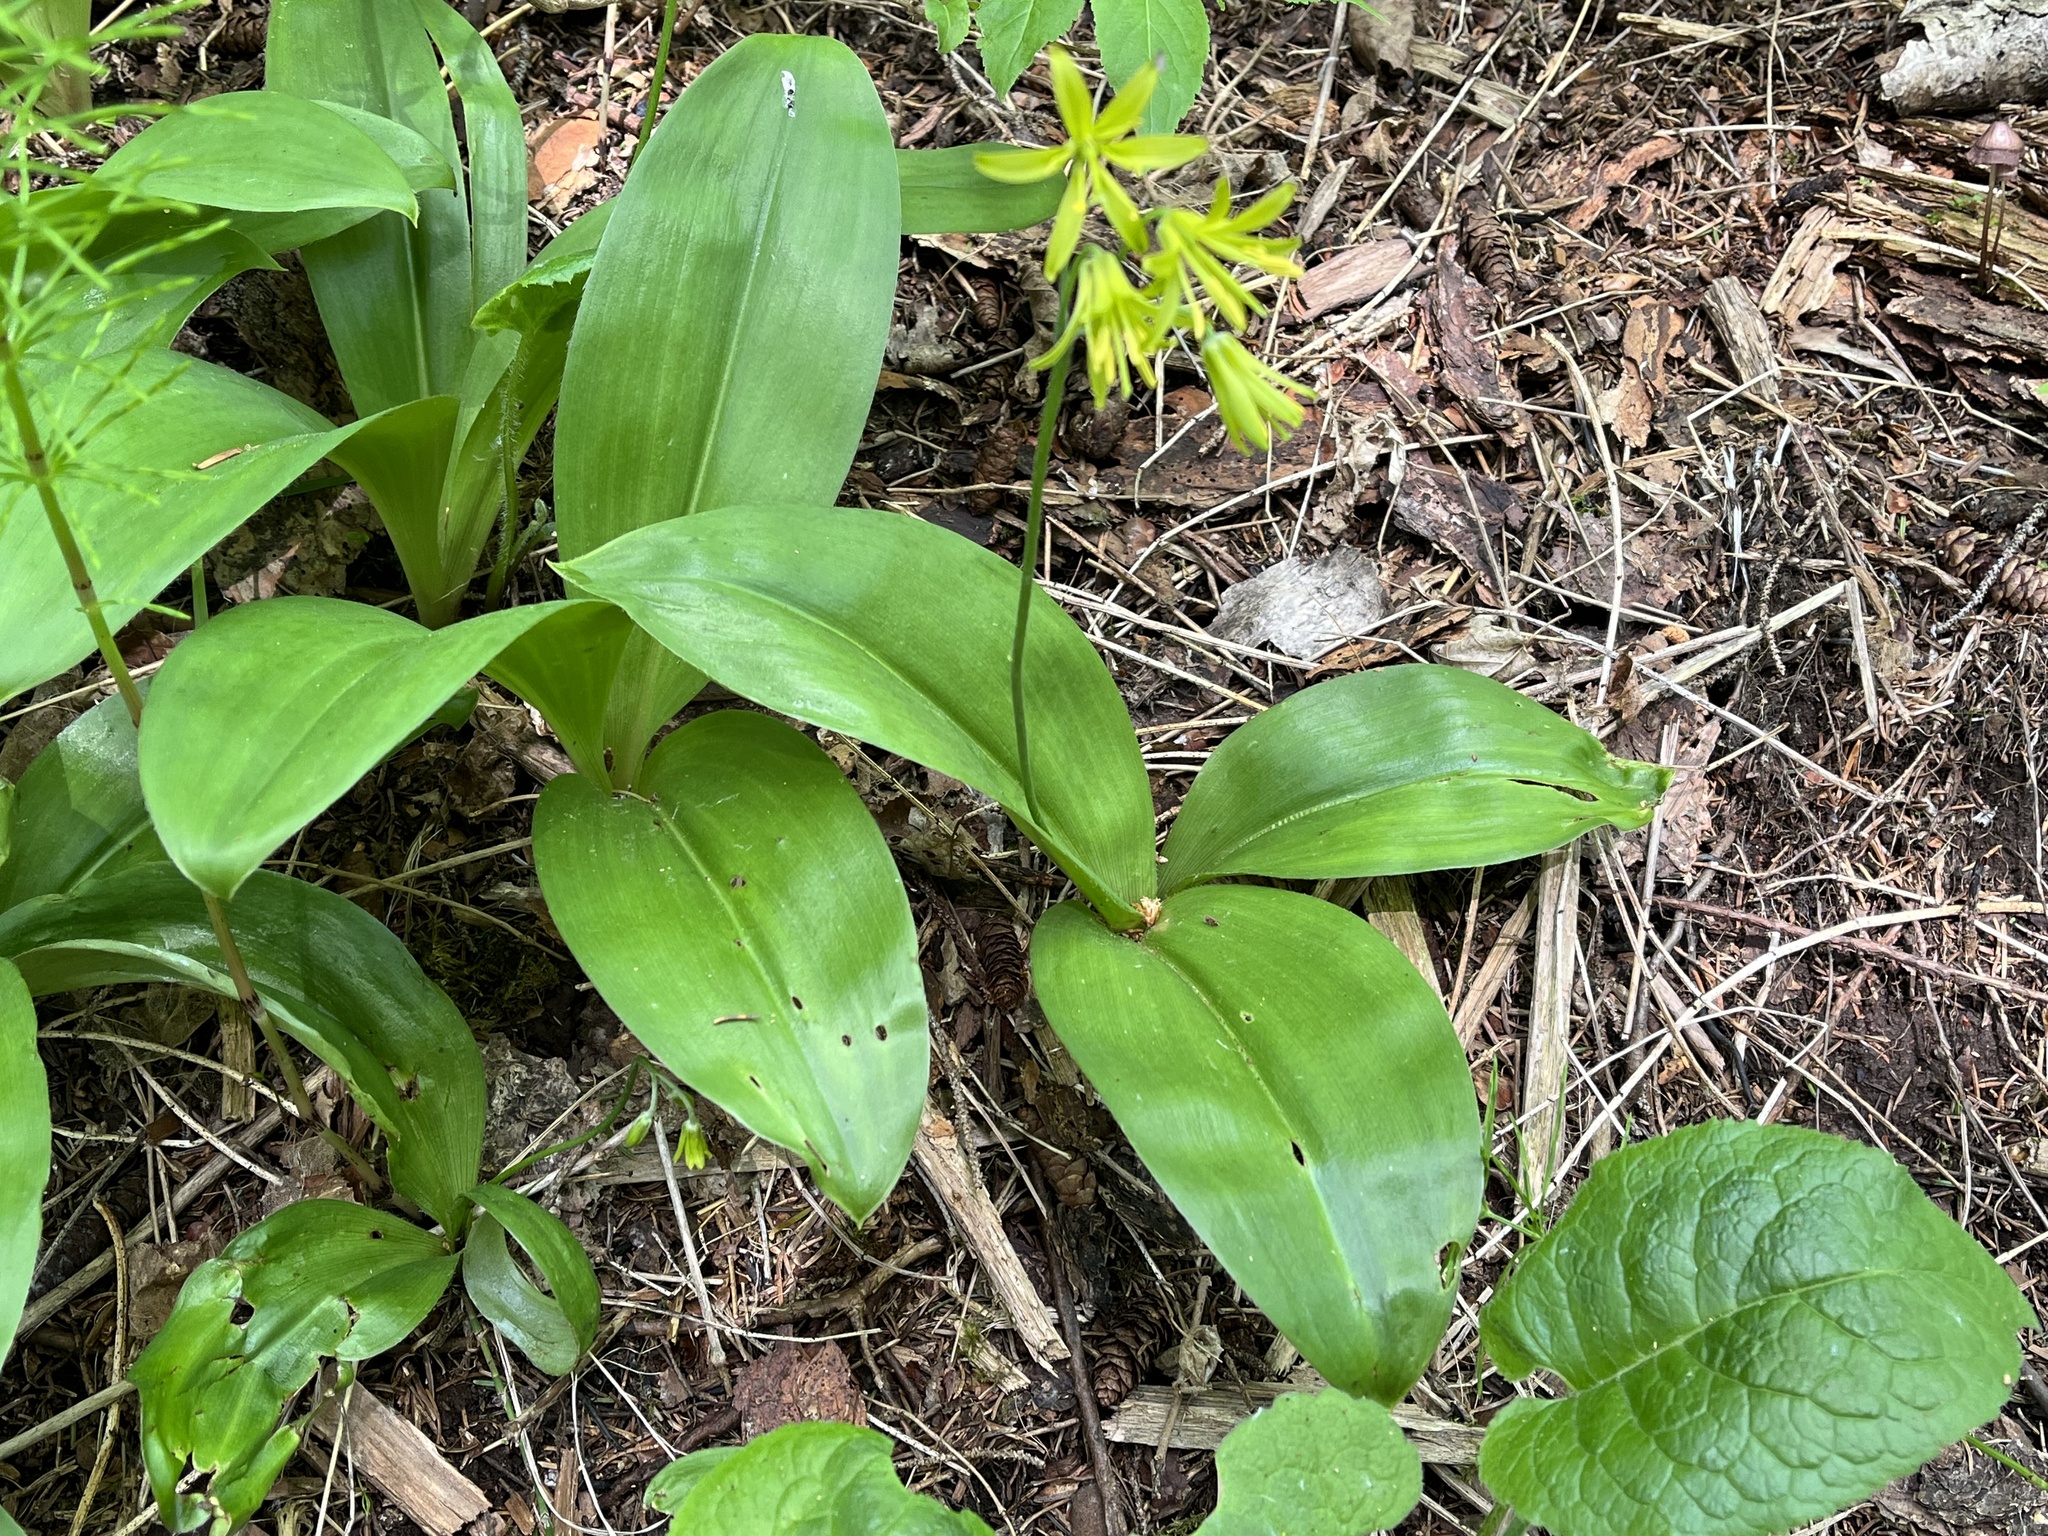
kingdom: Plantae
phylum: Tracheophyta
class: Liliopsida
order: Liliales
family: Liliaceae
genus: Clintonia
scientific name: Clintonia borealis
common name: Yellow clintonia
